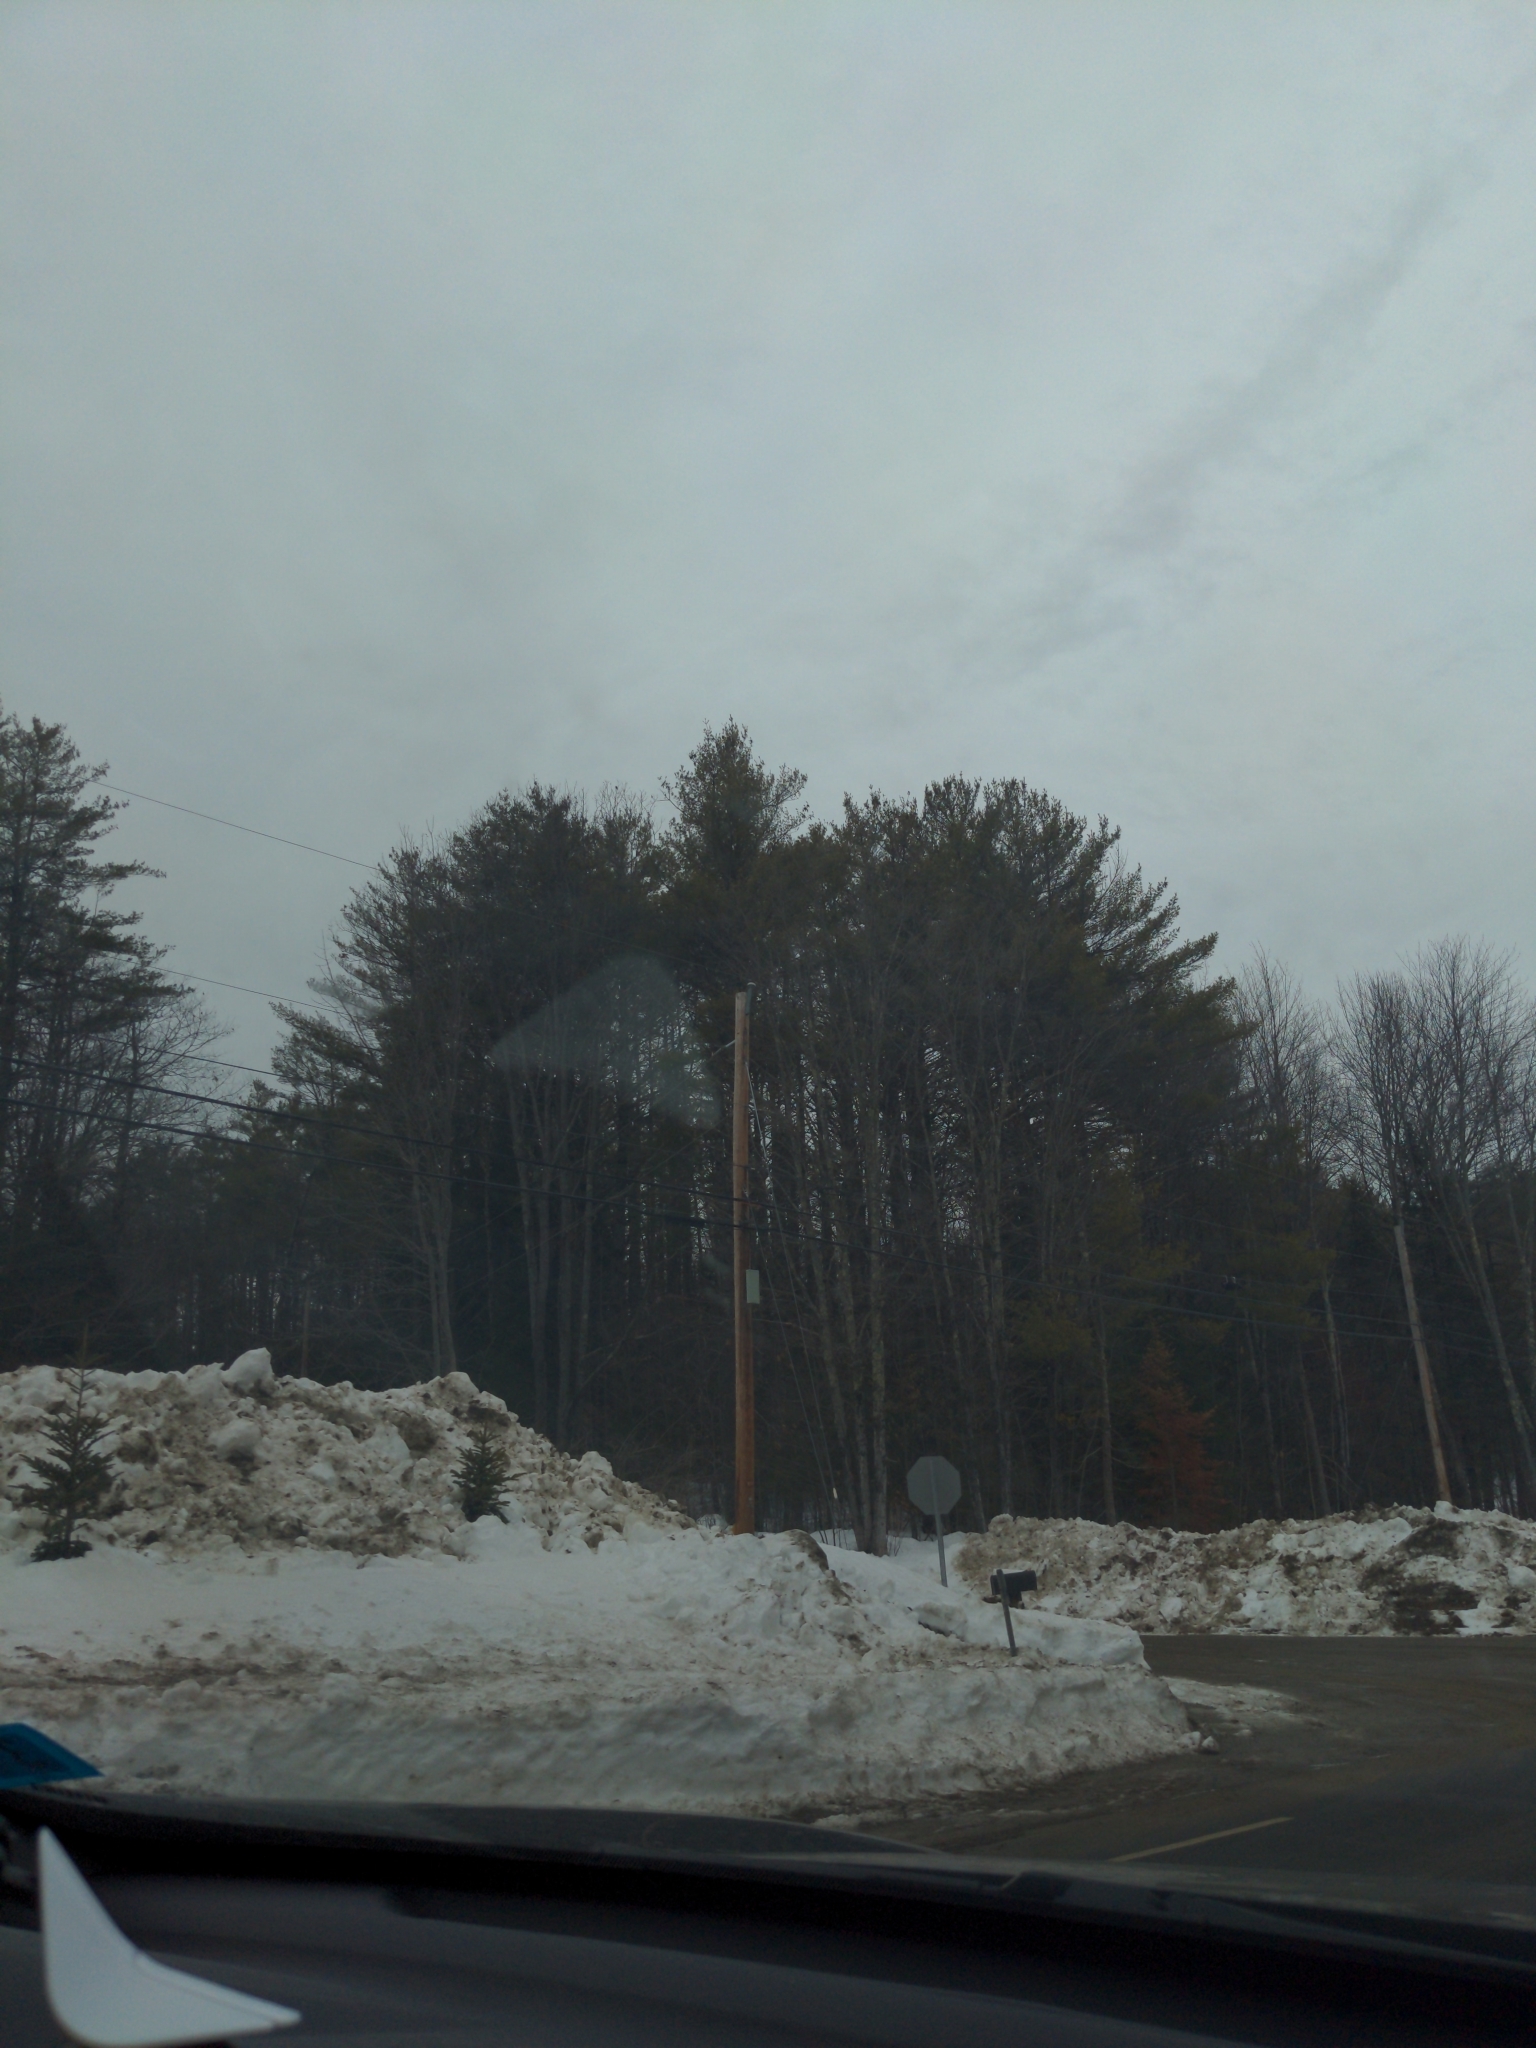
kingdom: Plantae
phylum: Tracheophyta
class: Pinopsida
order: Pinales
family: Pinaceae
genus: Pinus
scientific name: Pinus strobus
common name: Weymouth pine
